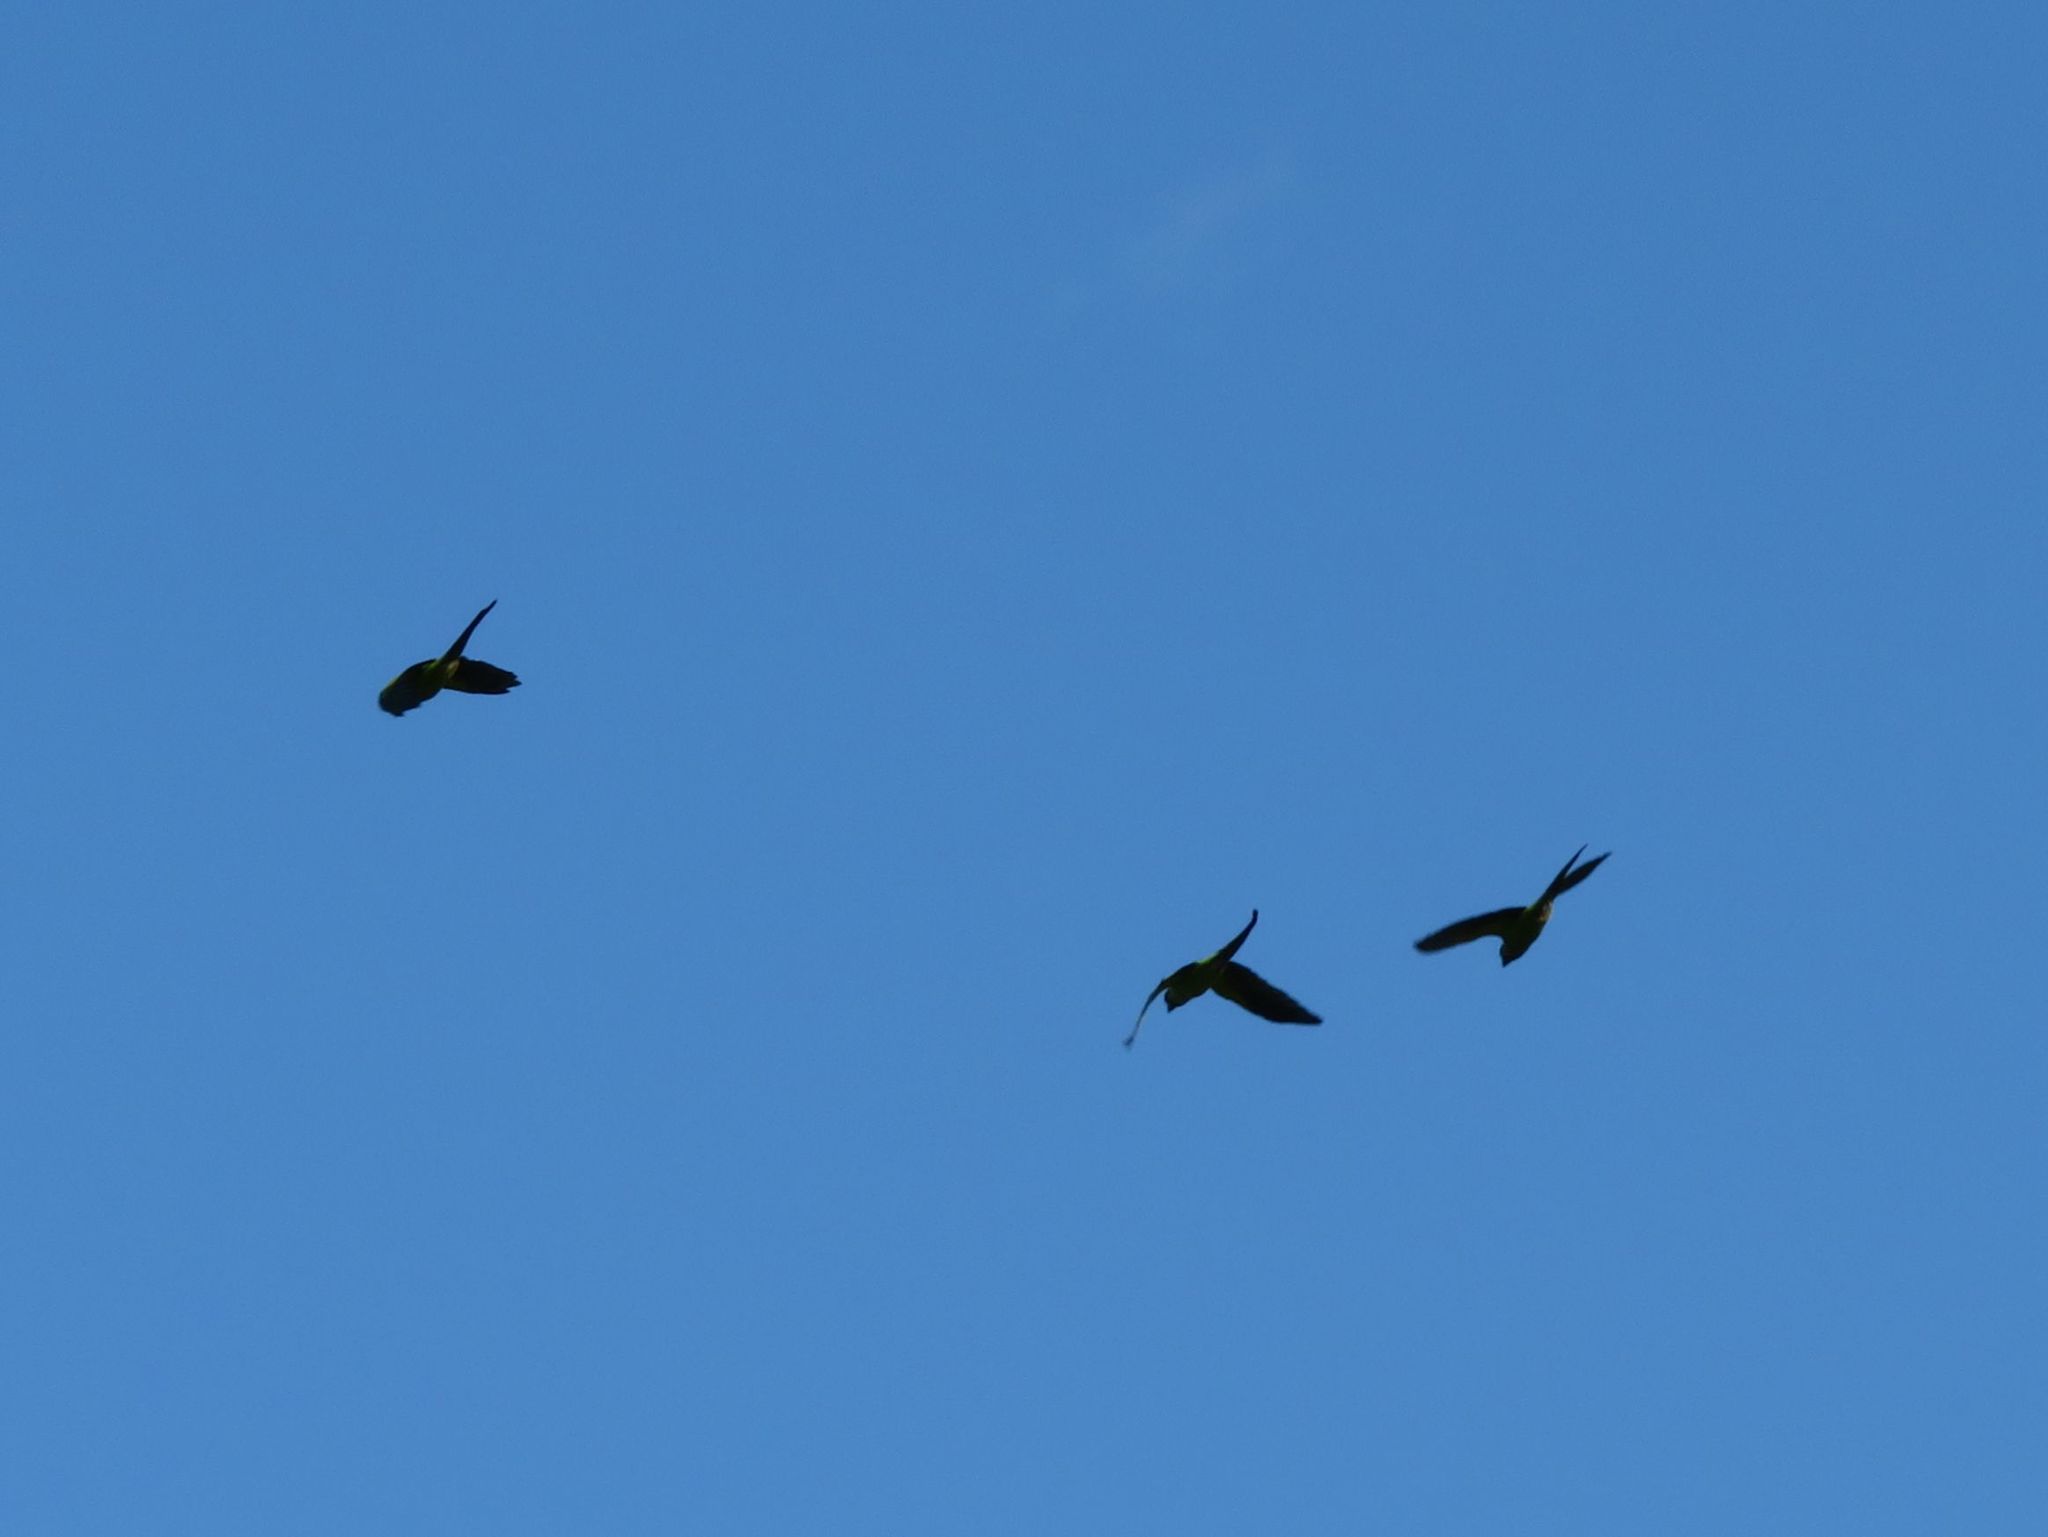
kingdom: Animalia
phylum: Chordata
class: Aves
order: Psittaciformes
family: Psittacidae
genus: Nandayus
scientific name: Nandayus nenday
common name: Nanday parakeet
